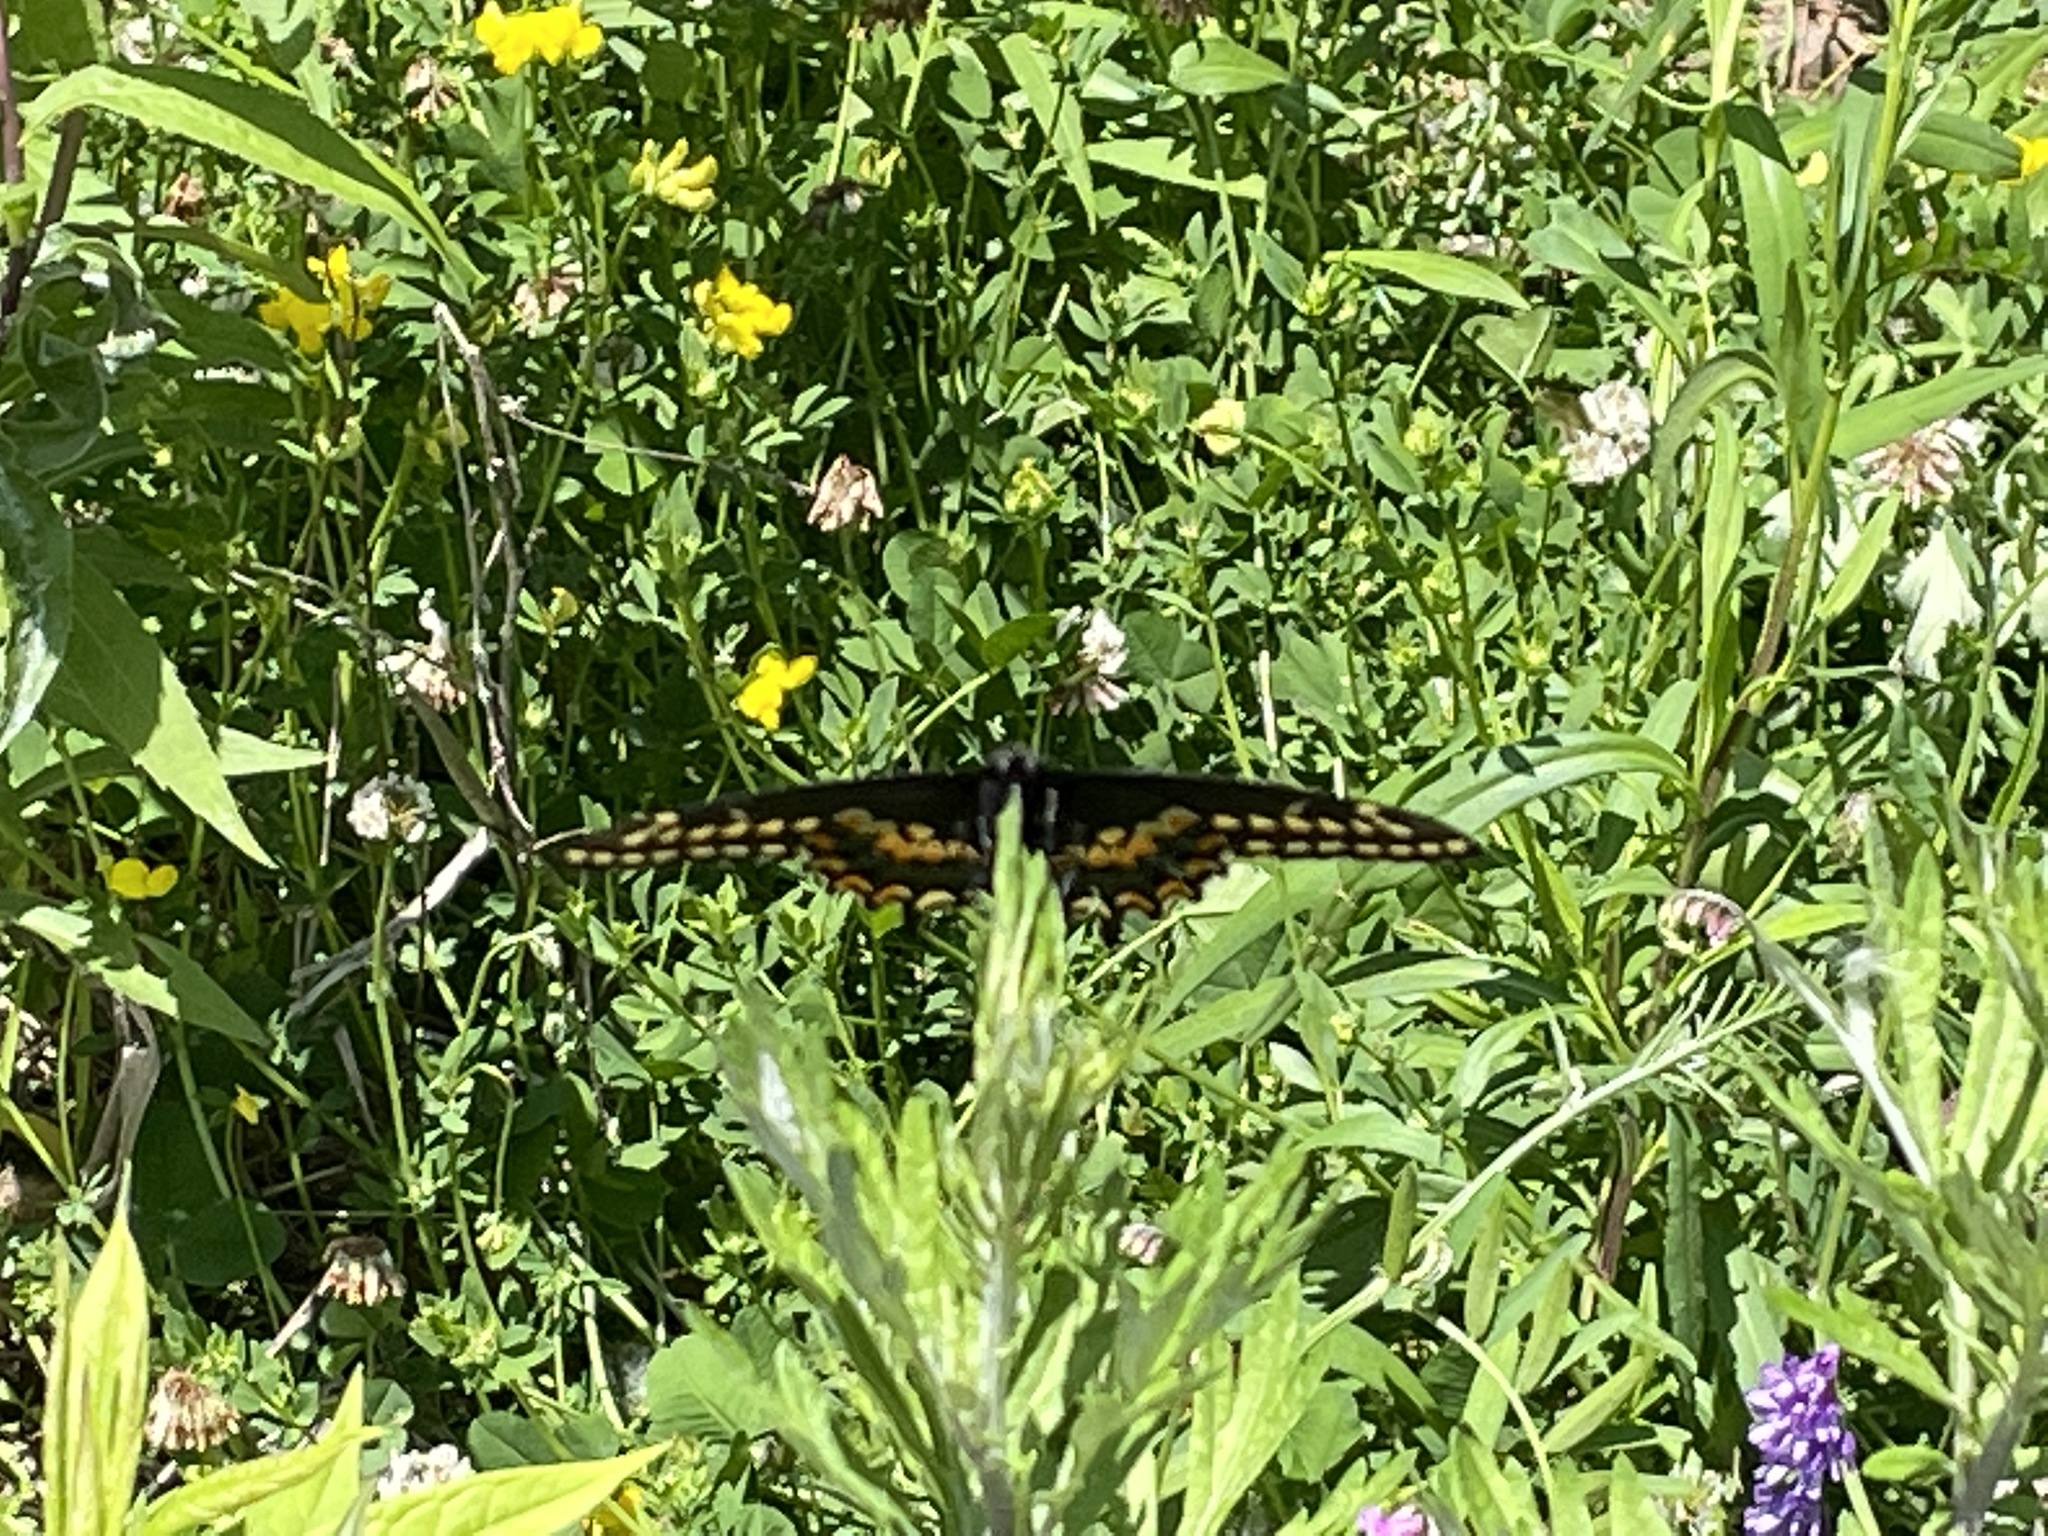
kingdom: Animalia
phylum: Arthropoda
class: Insecta
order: Lepidoptera
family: Papilionidae
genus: Papilio
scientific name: Papilio polyxenes
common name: Black swallowtail
